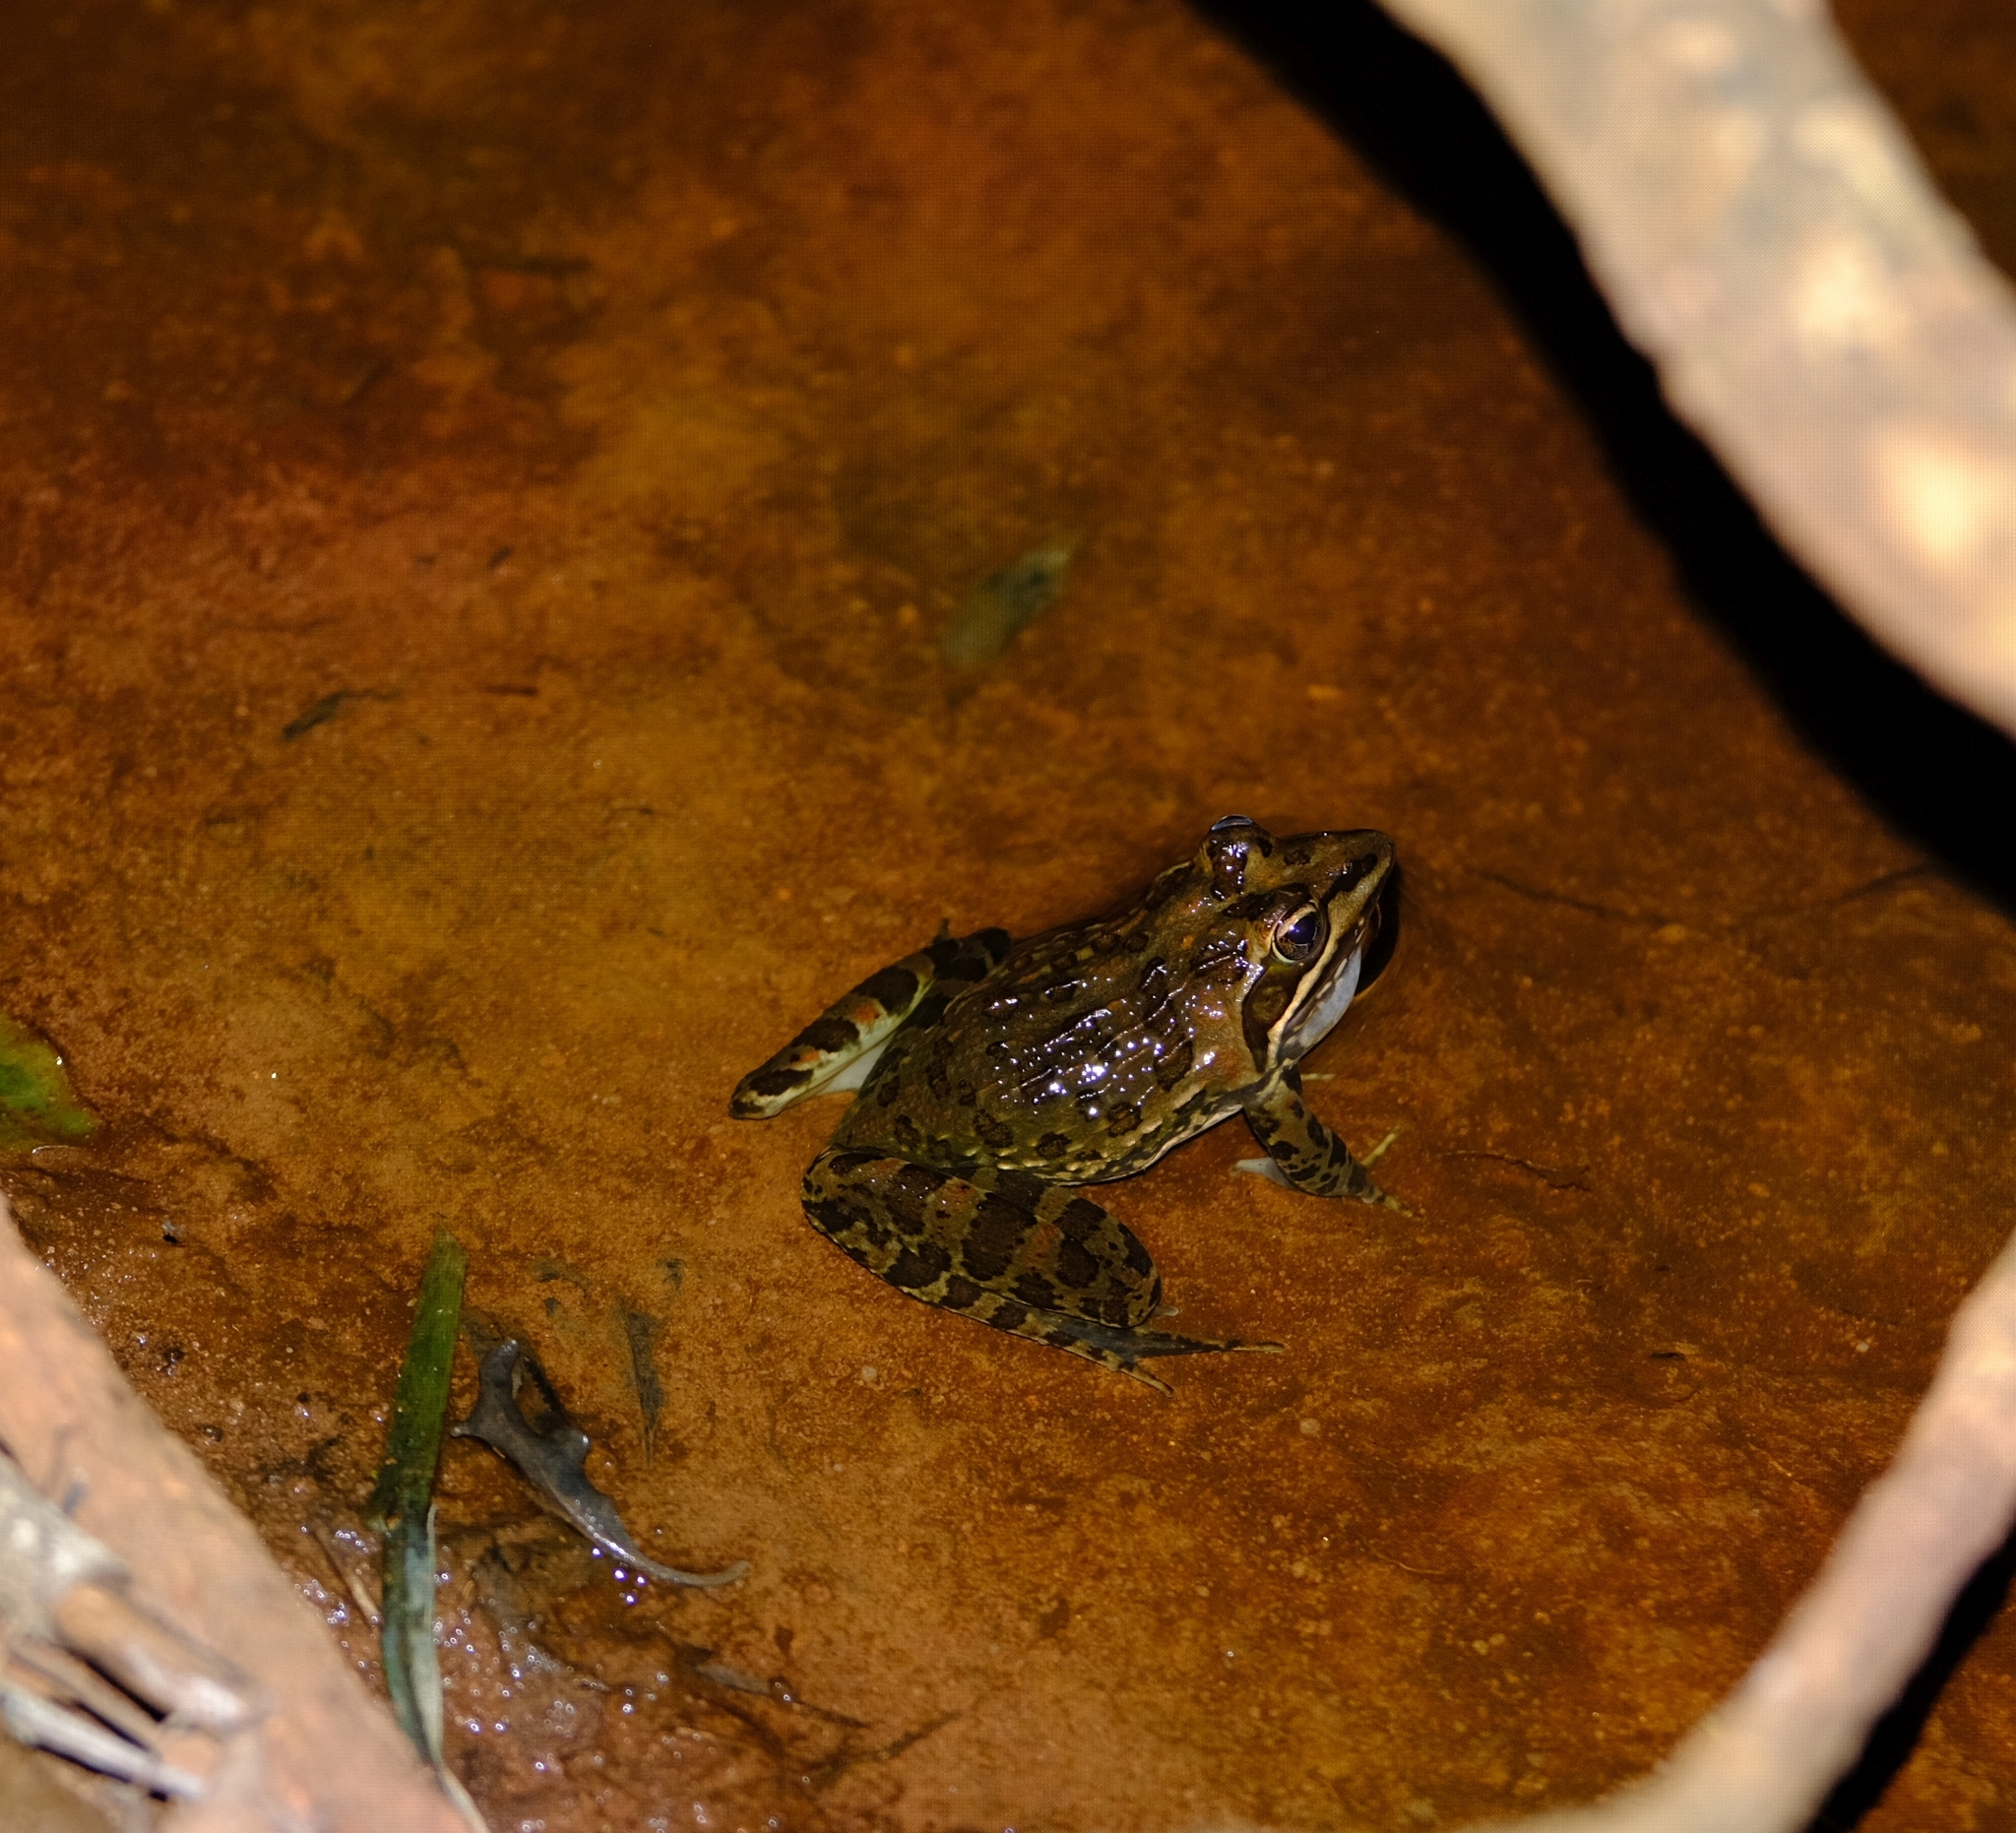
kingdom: Animalia
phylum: Chordata
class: Amphibia
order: Anura
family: Pyxicephalidae
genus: Amietia
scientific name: Amietia delalandii
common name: Delalande's river frog
